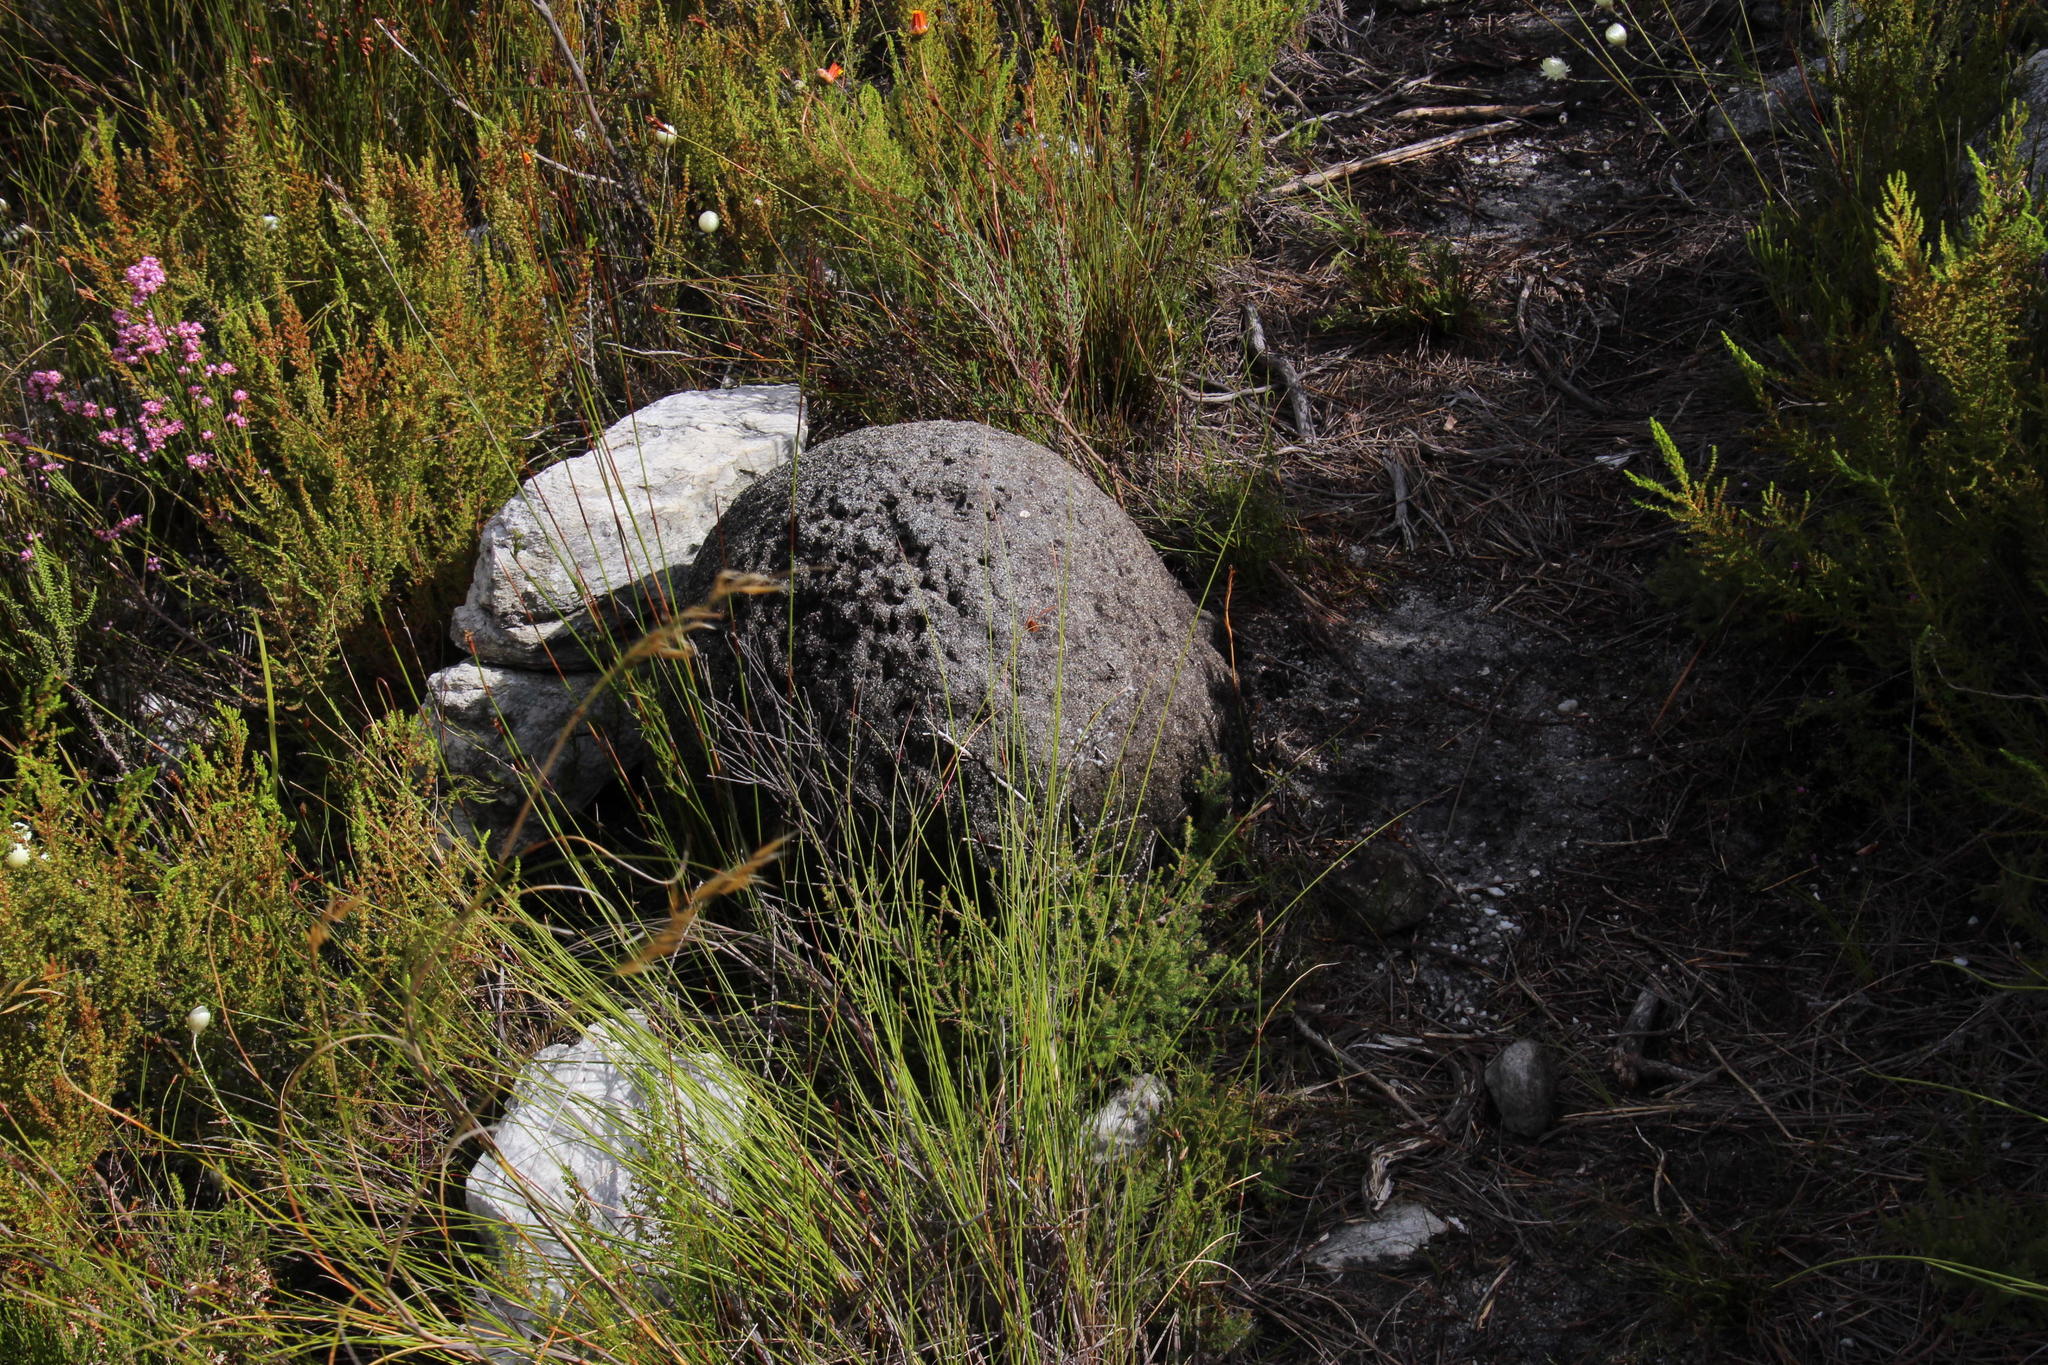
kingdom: Animalia
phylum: Arthropoda
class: Insecta
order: Blattodea
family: Termitidae
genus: Amitermes
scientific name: Amitermes hastatus
